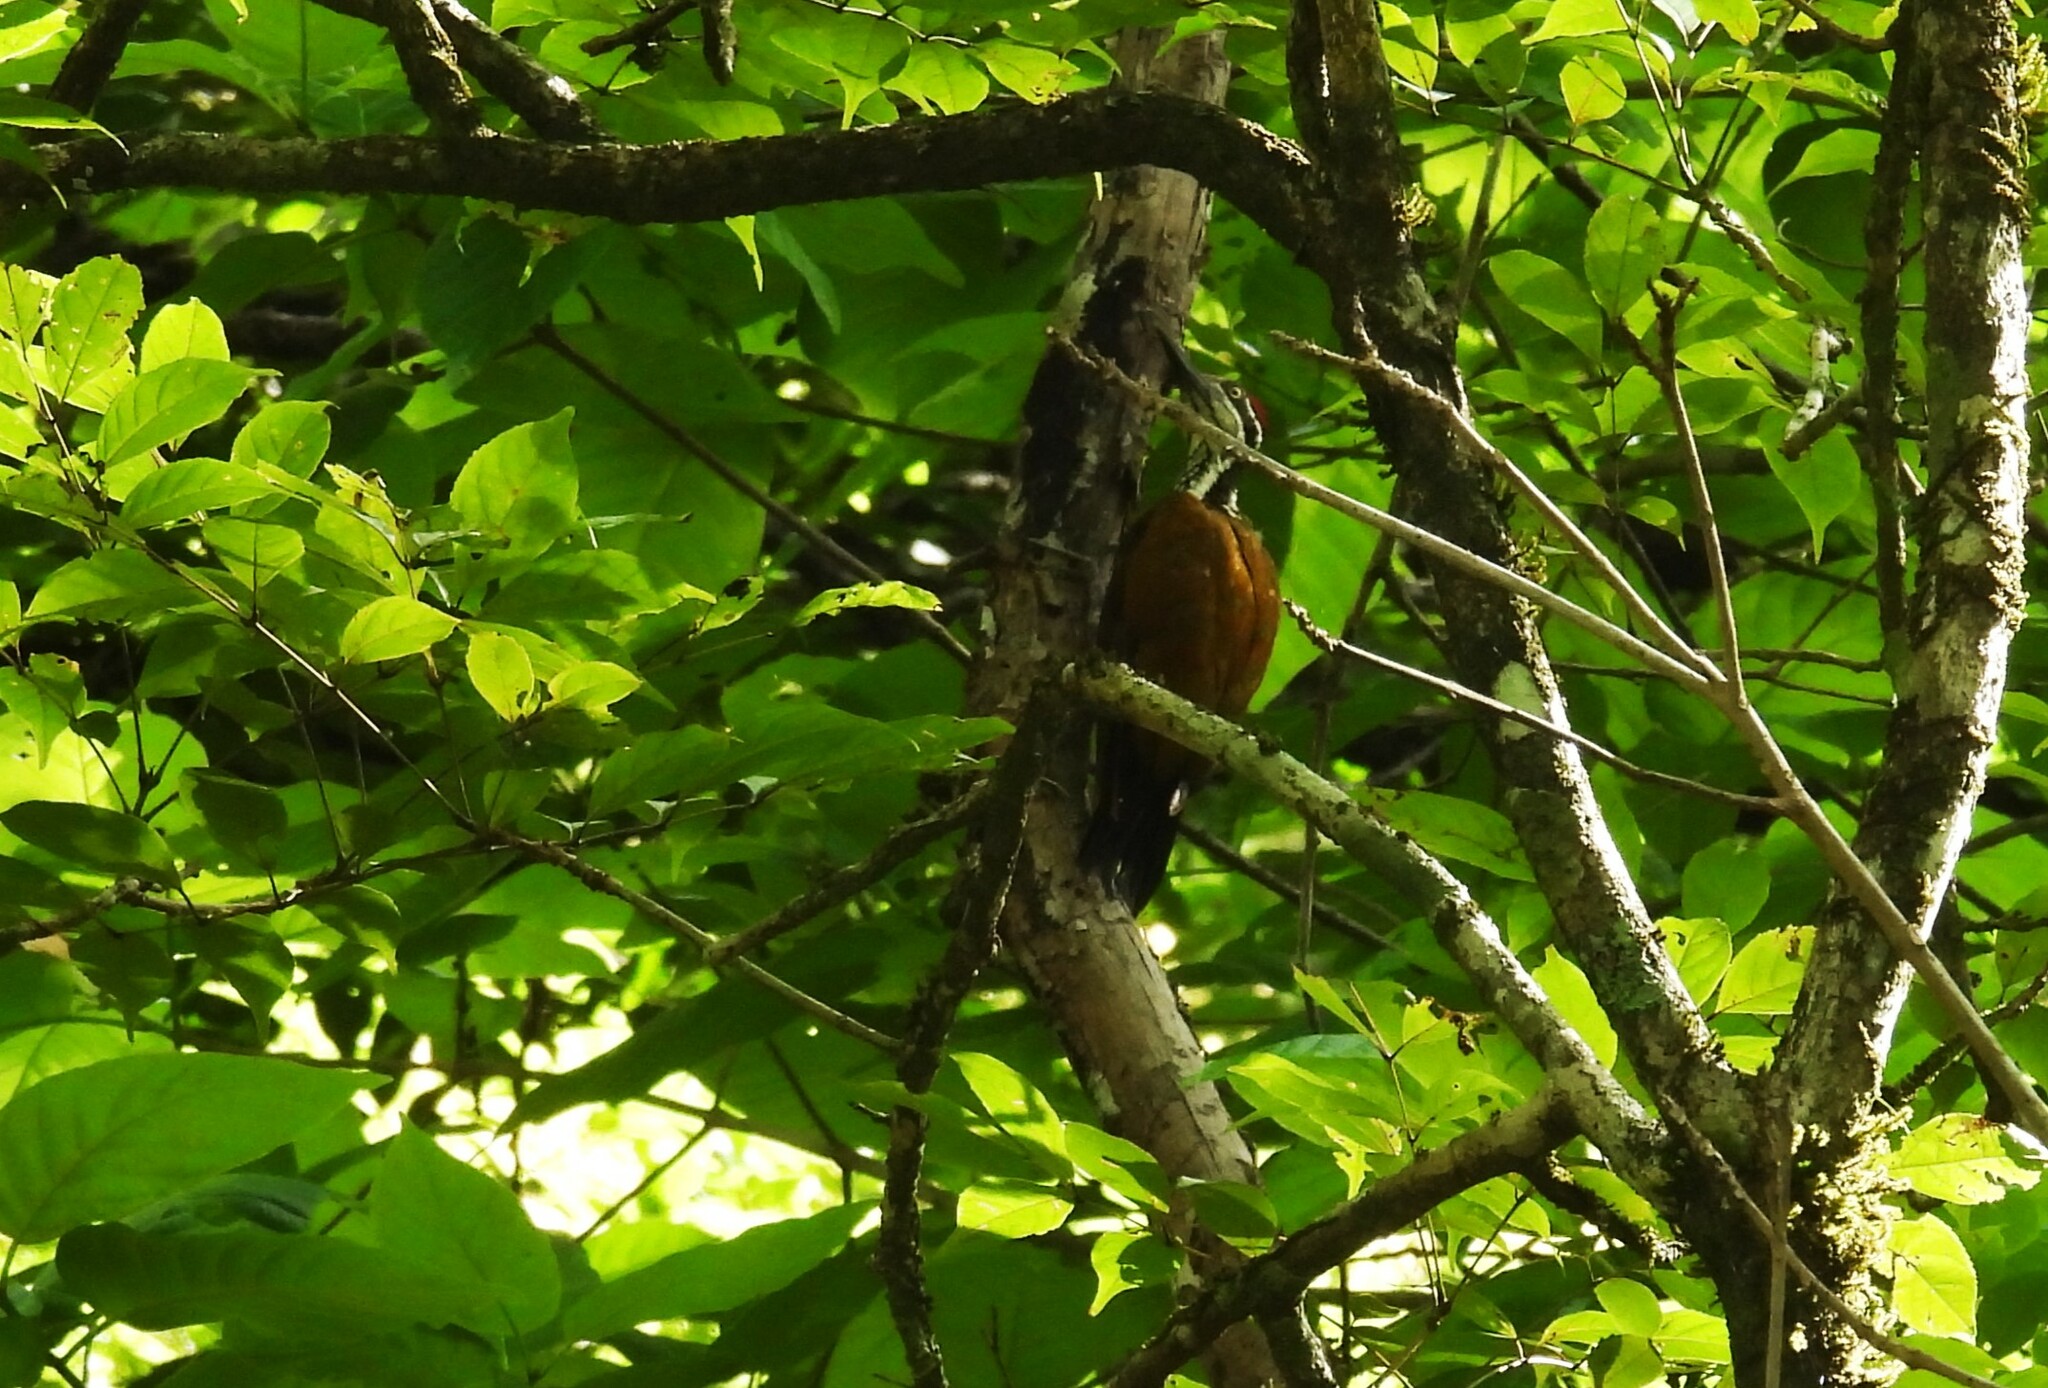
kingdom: Animalia
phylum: Chordata
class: Aves
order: Piciformes
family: Picidae
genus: Chrysocolaptes
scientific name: Chrysocolaptes socialis
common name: Malabar flameback
